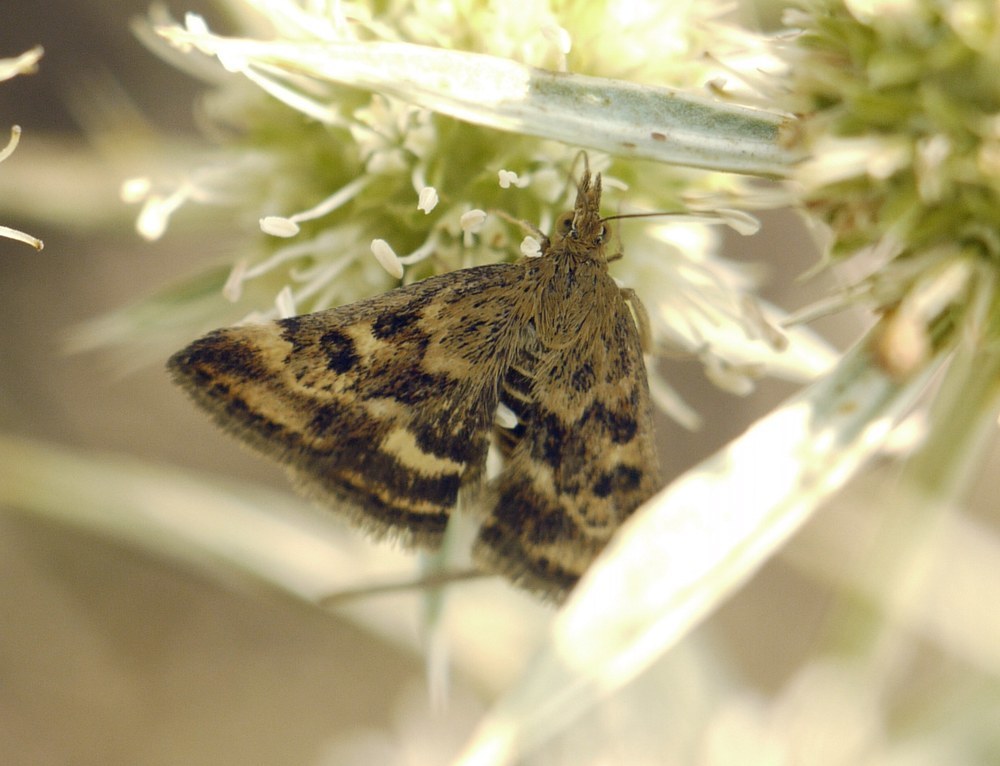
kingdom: Animalia
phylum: Arthropoda
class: Insecta
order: Lepidoptera
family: Crambidae
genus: Pyrausta
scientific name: Pyrausta despicata
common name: Straw-barred pearl
